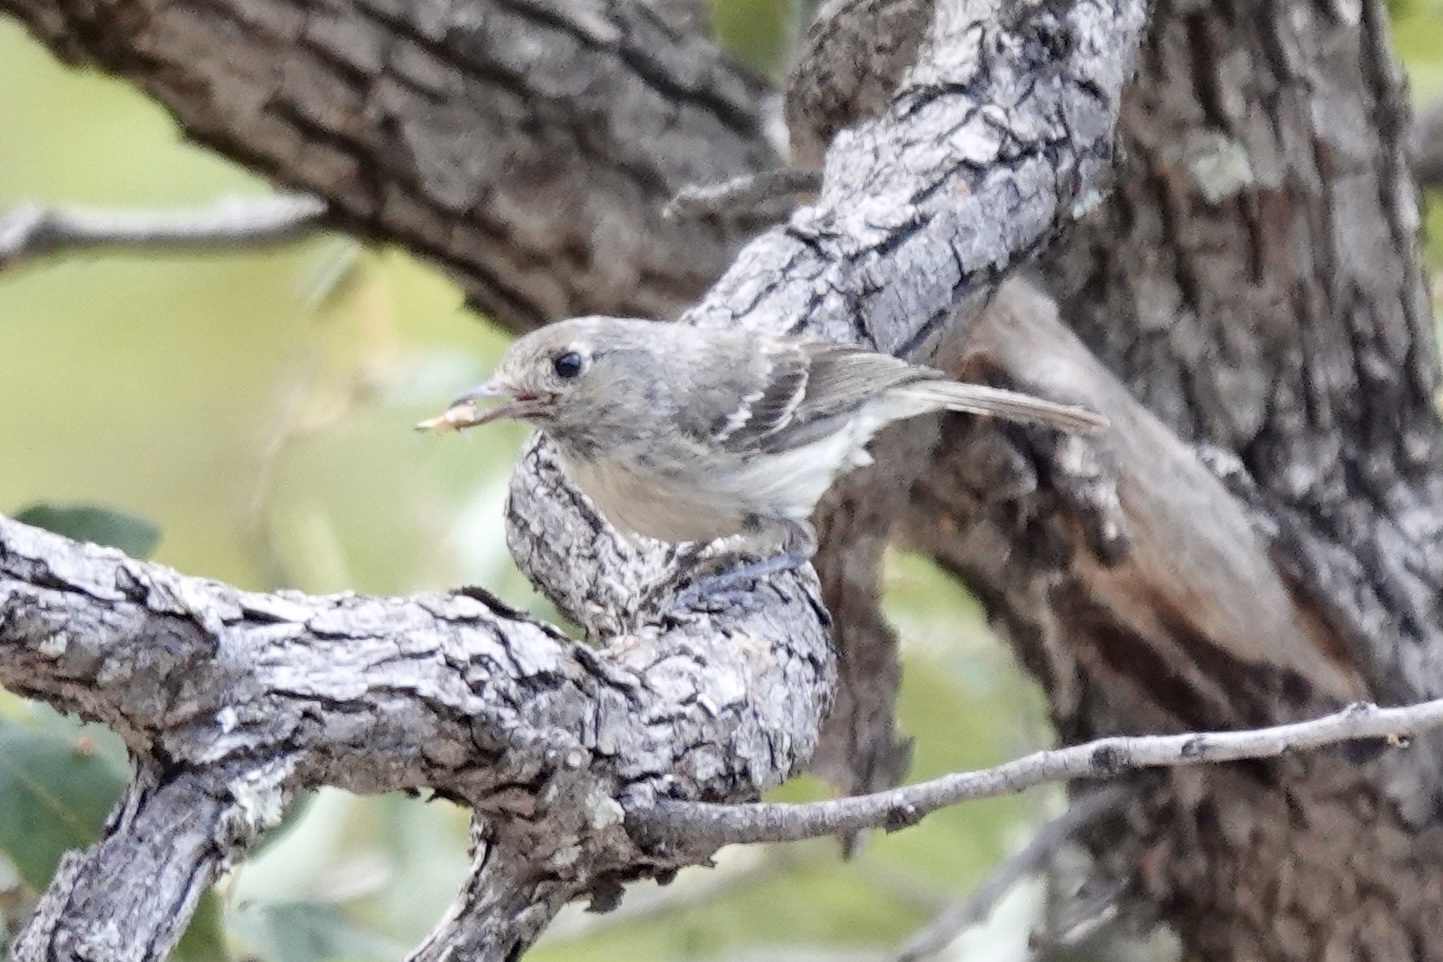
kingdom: Animalia
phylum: Chordata
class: Aves
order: Passeriformes
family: Vireonidae
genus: Vireo
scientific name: Vireo huttoni
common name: Hutton's vireo
